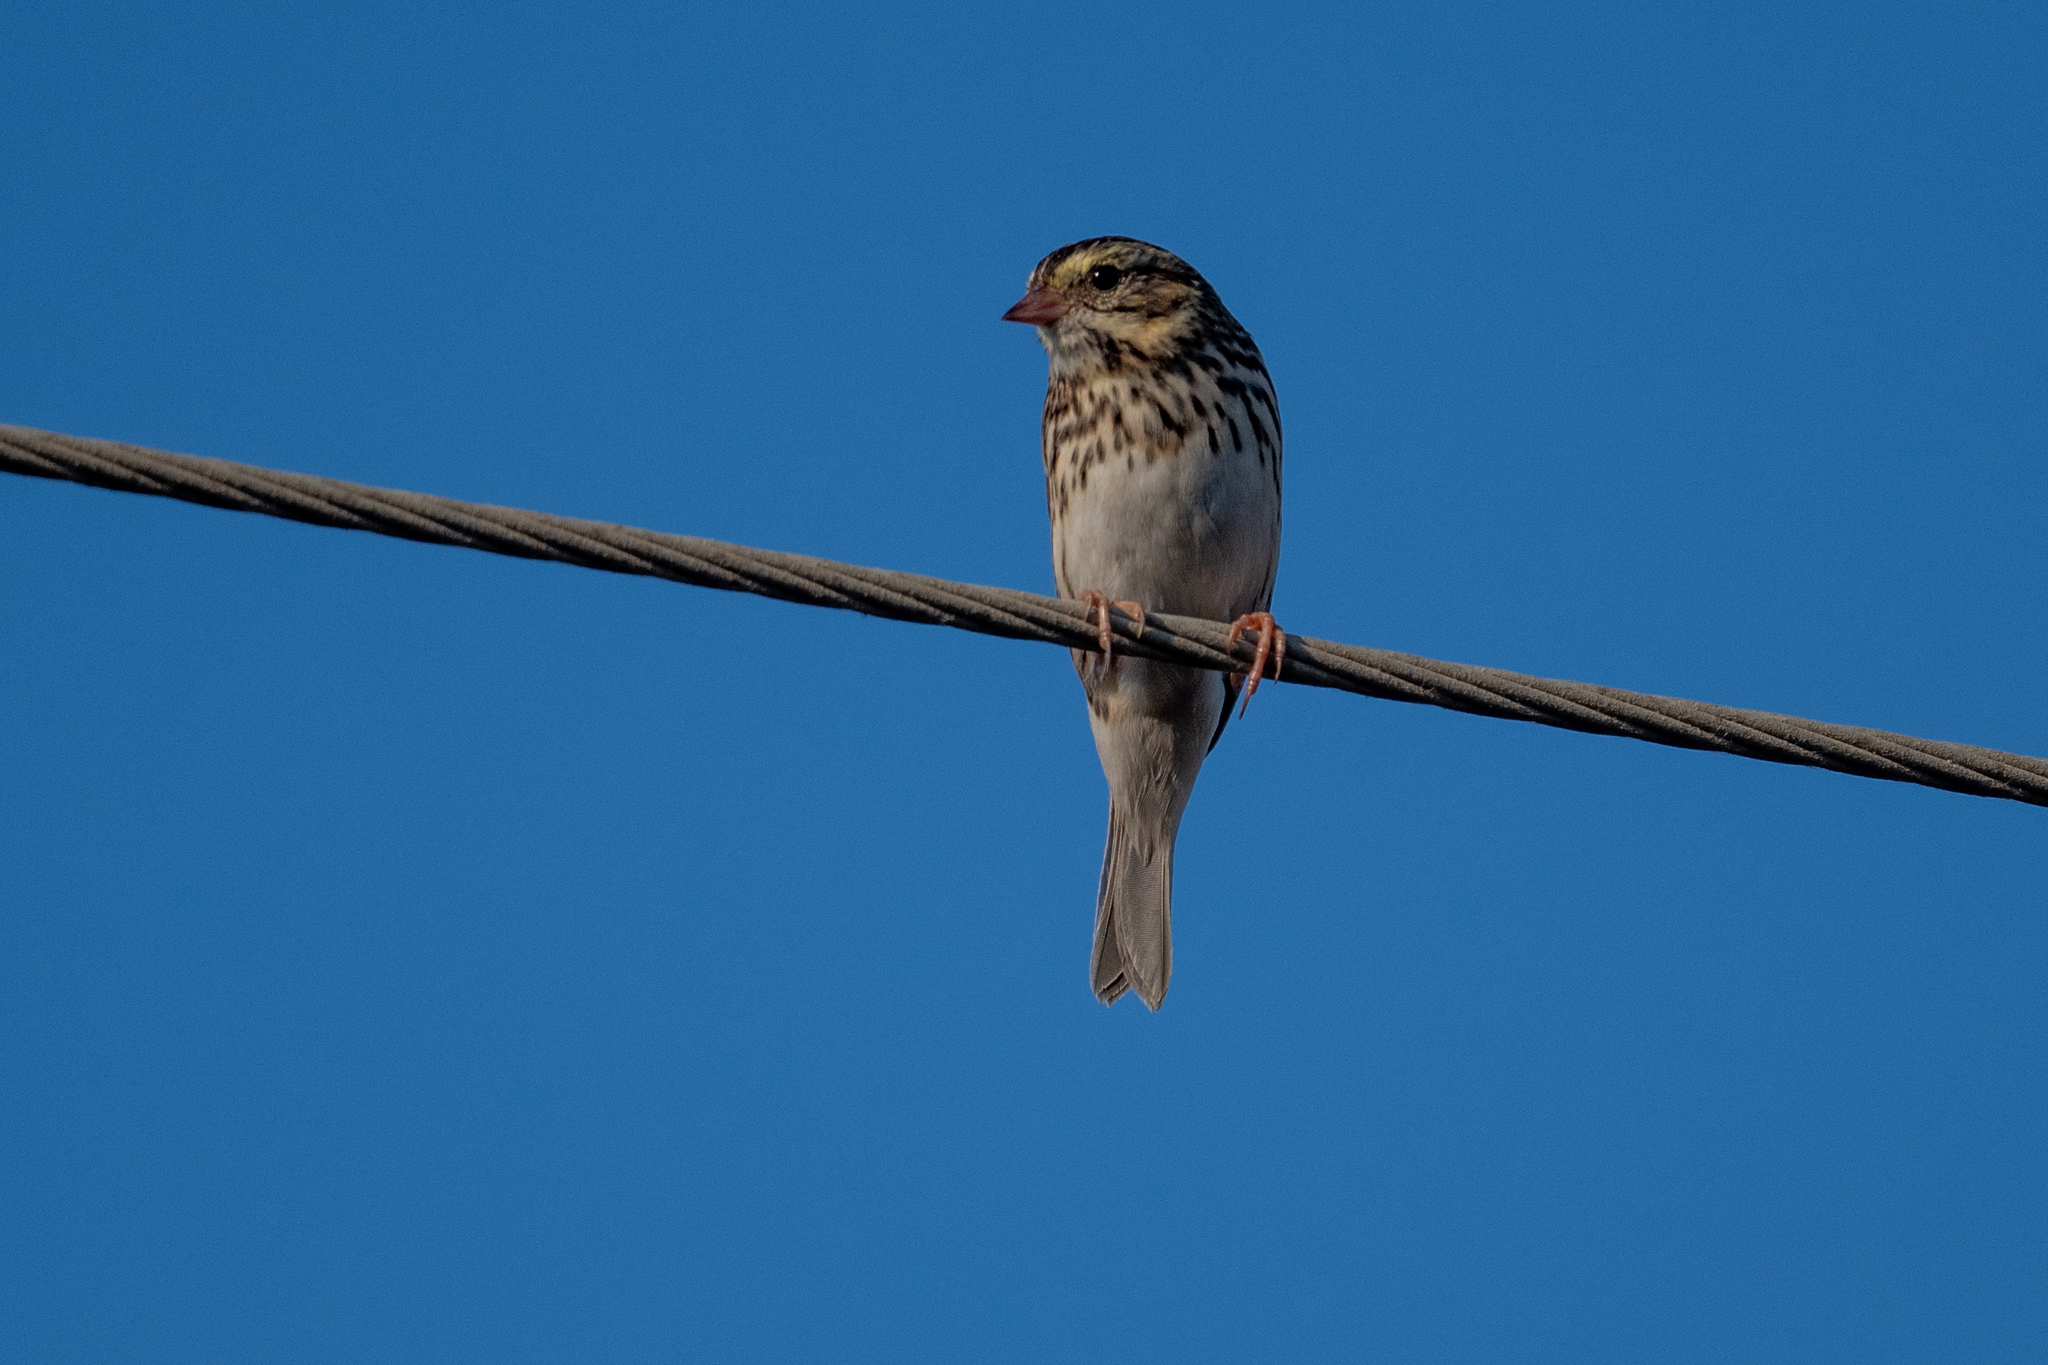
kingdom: Animalia
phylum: Chordata
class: Aves
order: Passeriformes
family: Passerellidae
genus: Passerculus
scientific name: Passerculus sandwichensis
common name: Savannah sparrow
